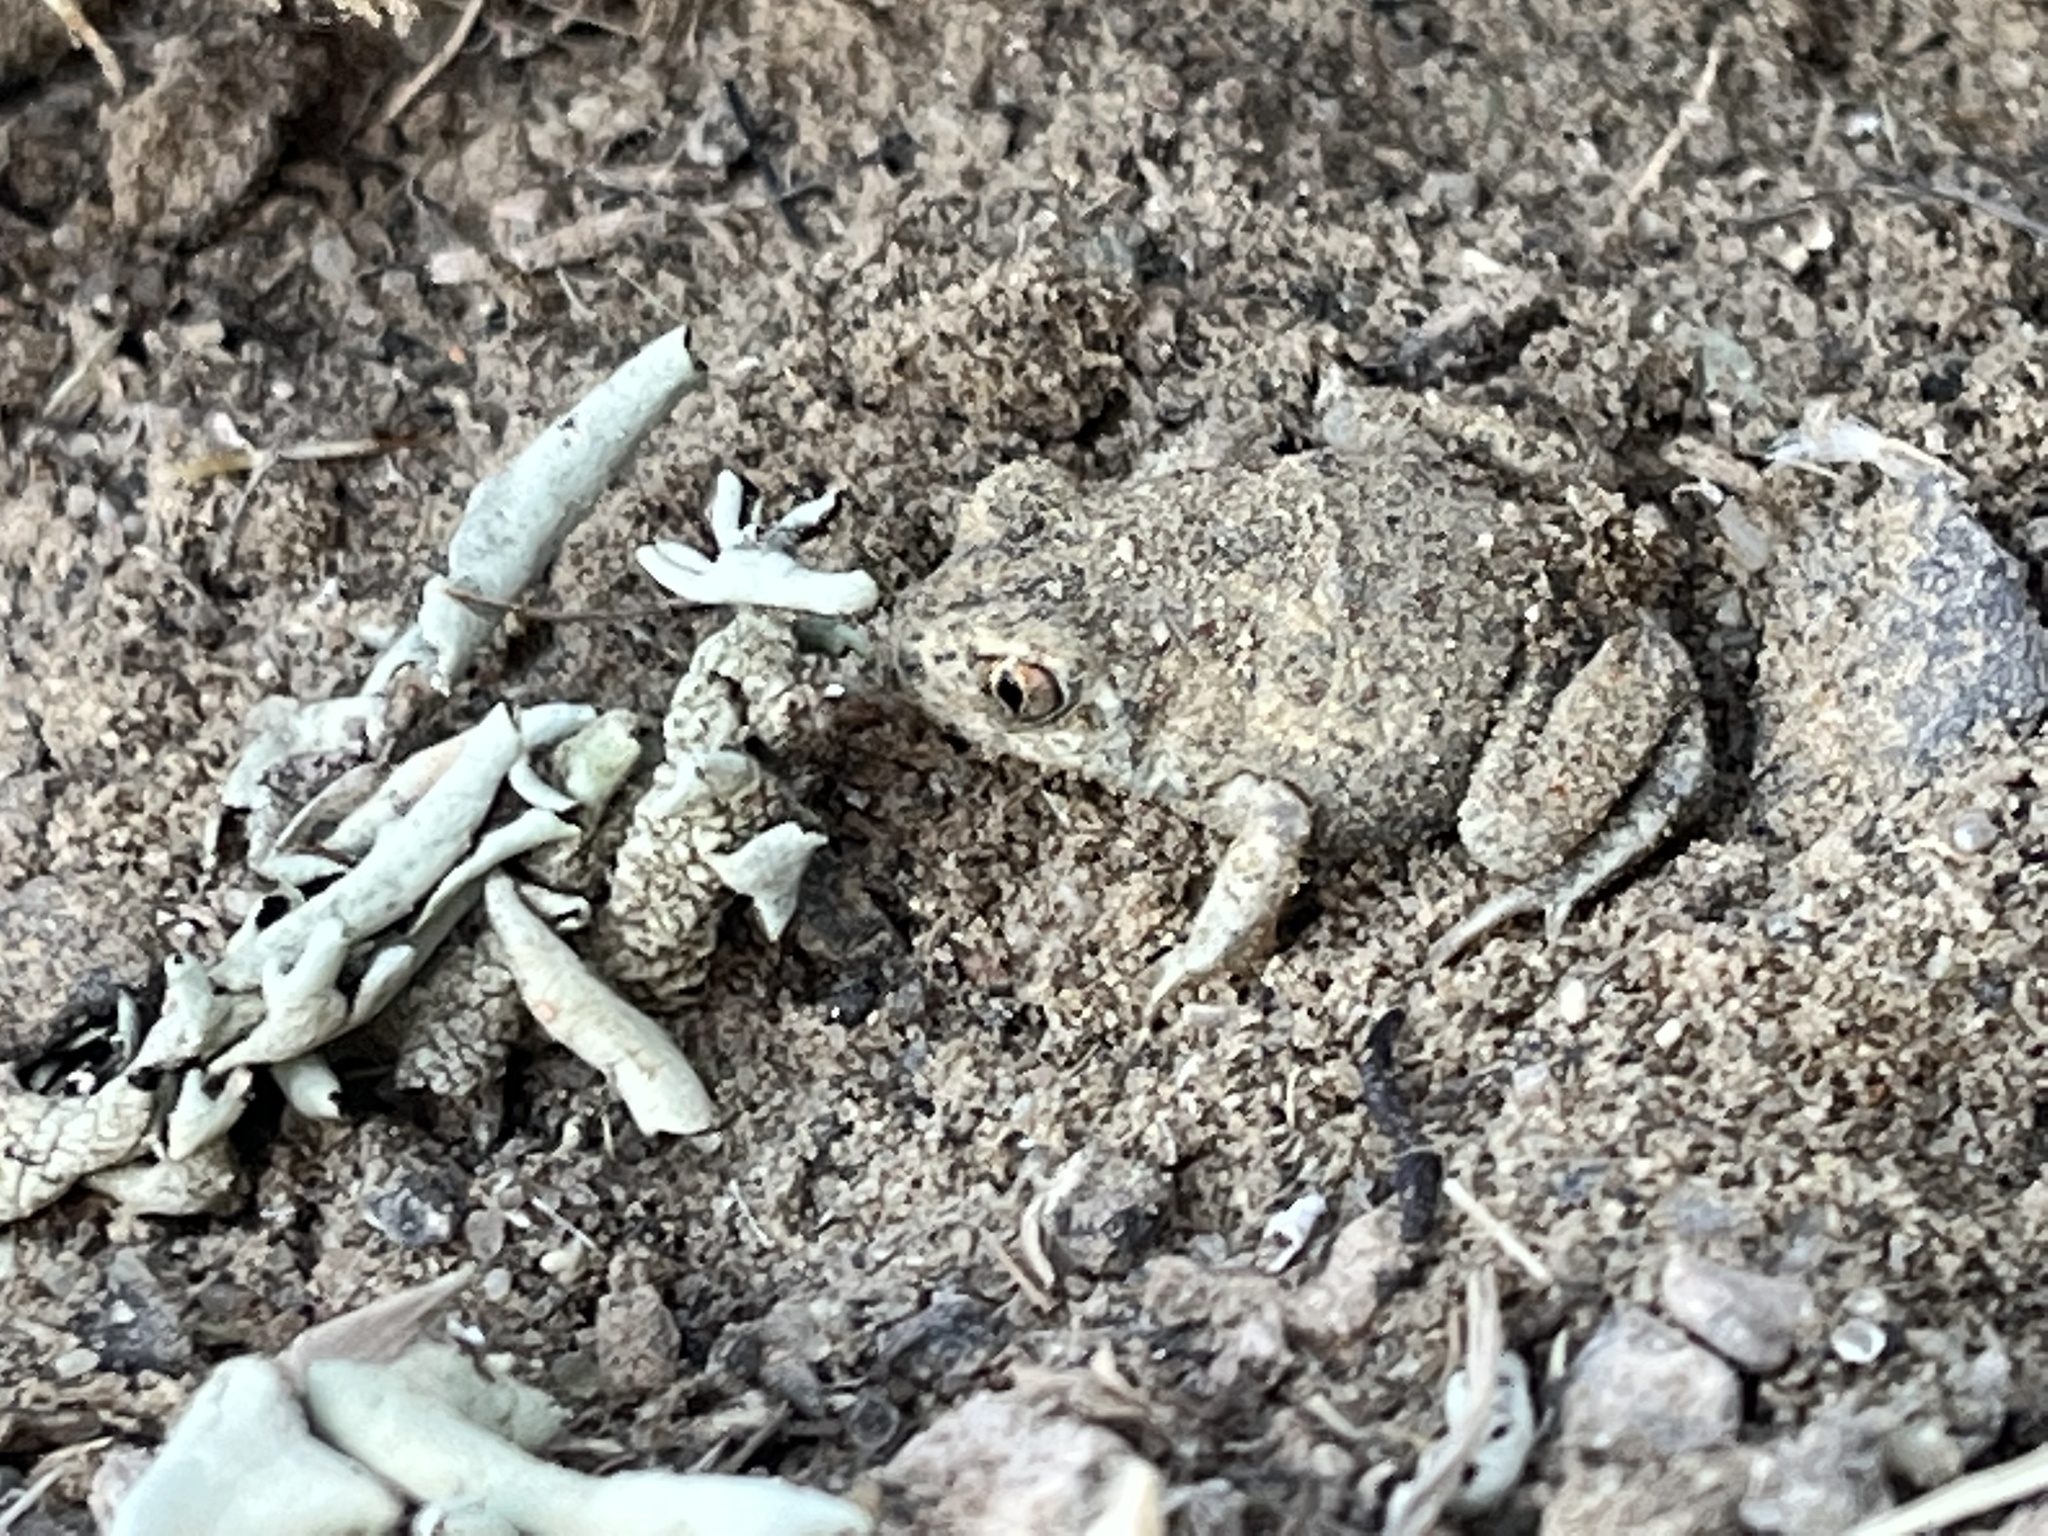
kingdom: Animalia
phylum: Chordata
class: Amphibia
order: Anura
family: Scaphiopodidae
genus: Spea
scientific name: Spea intermontana
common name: Great basin spadefoot
